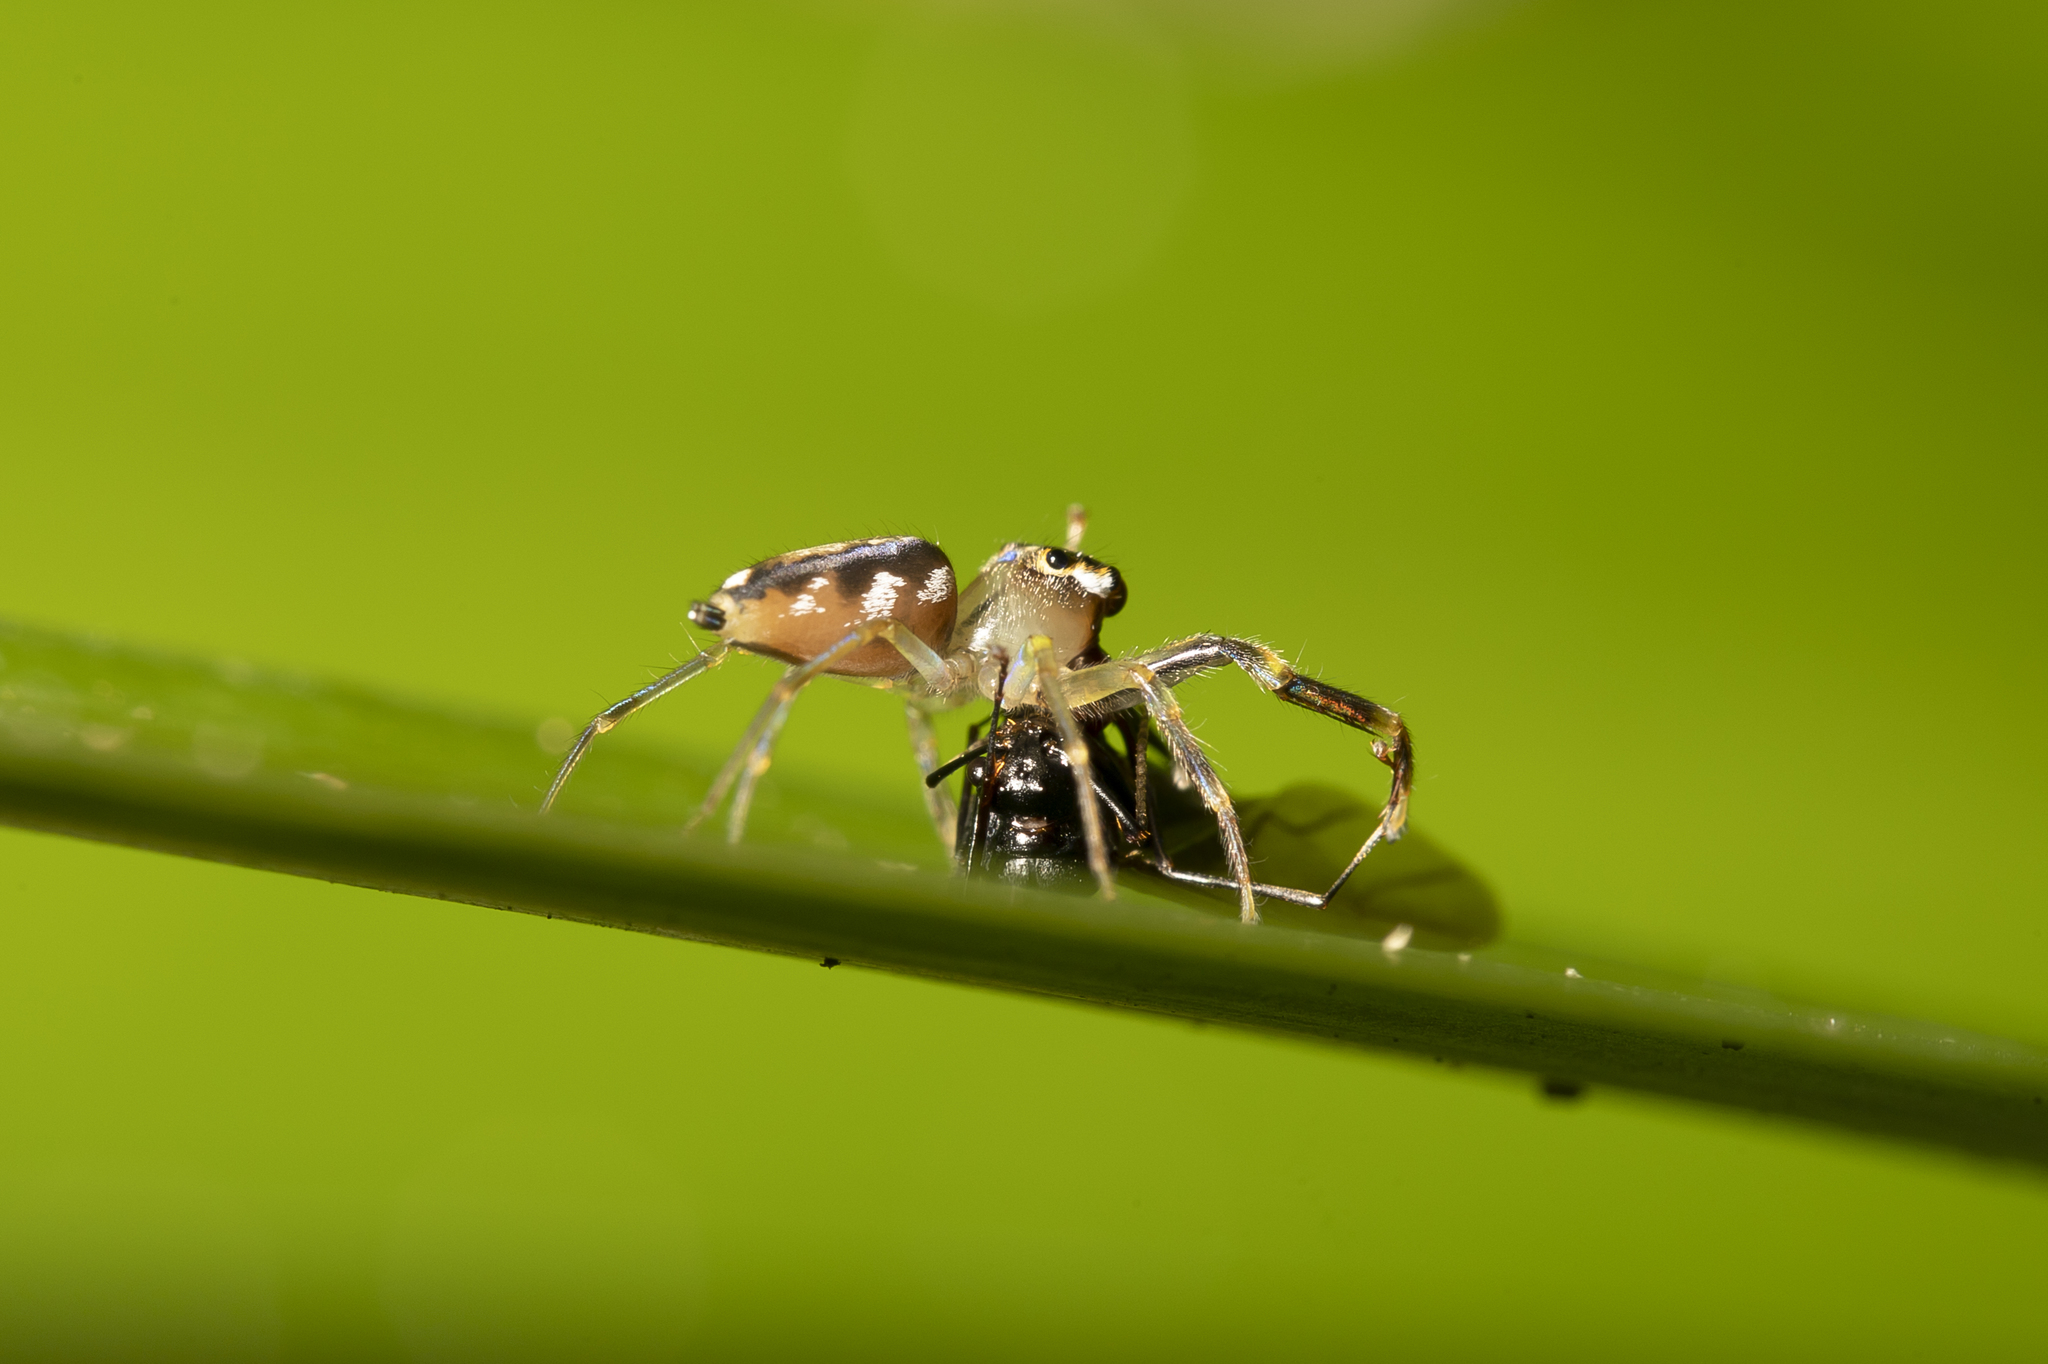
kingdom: Animalia
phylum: Arthropoda
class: Arachnida
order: Araneae
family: Salticidae
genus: Tauala
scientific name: Tauala lepidus
